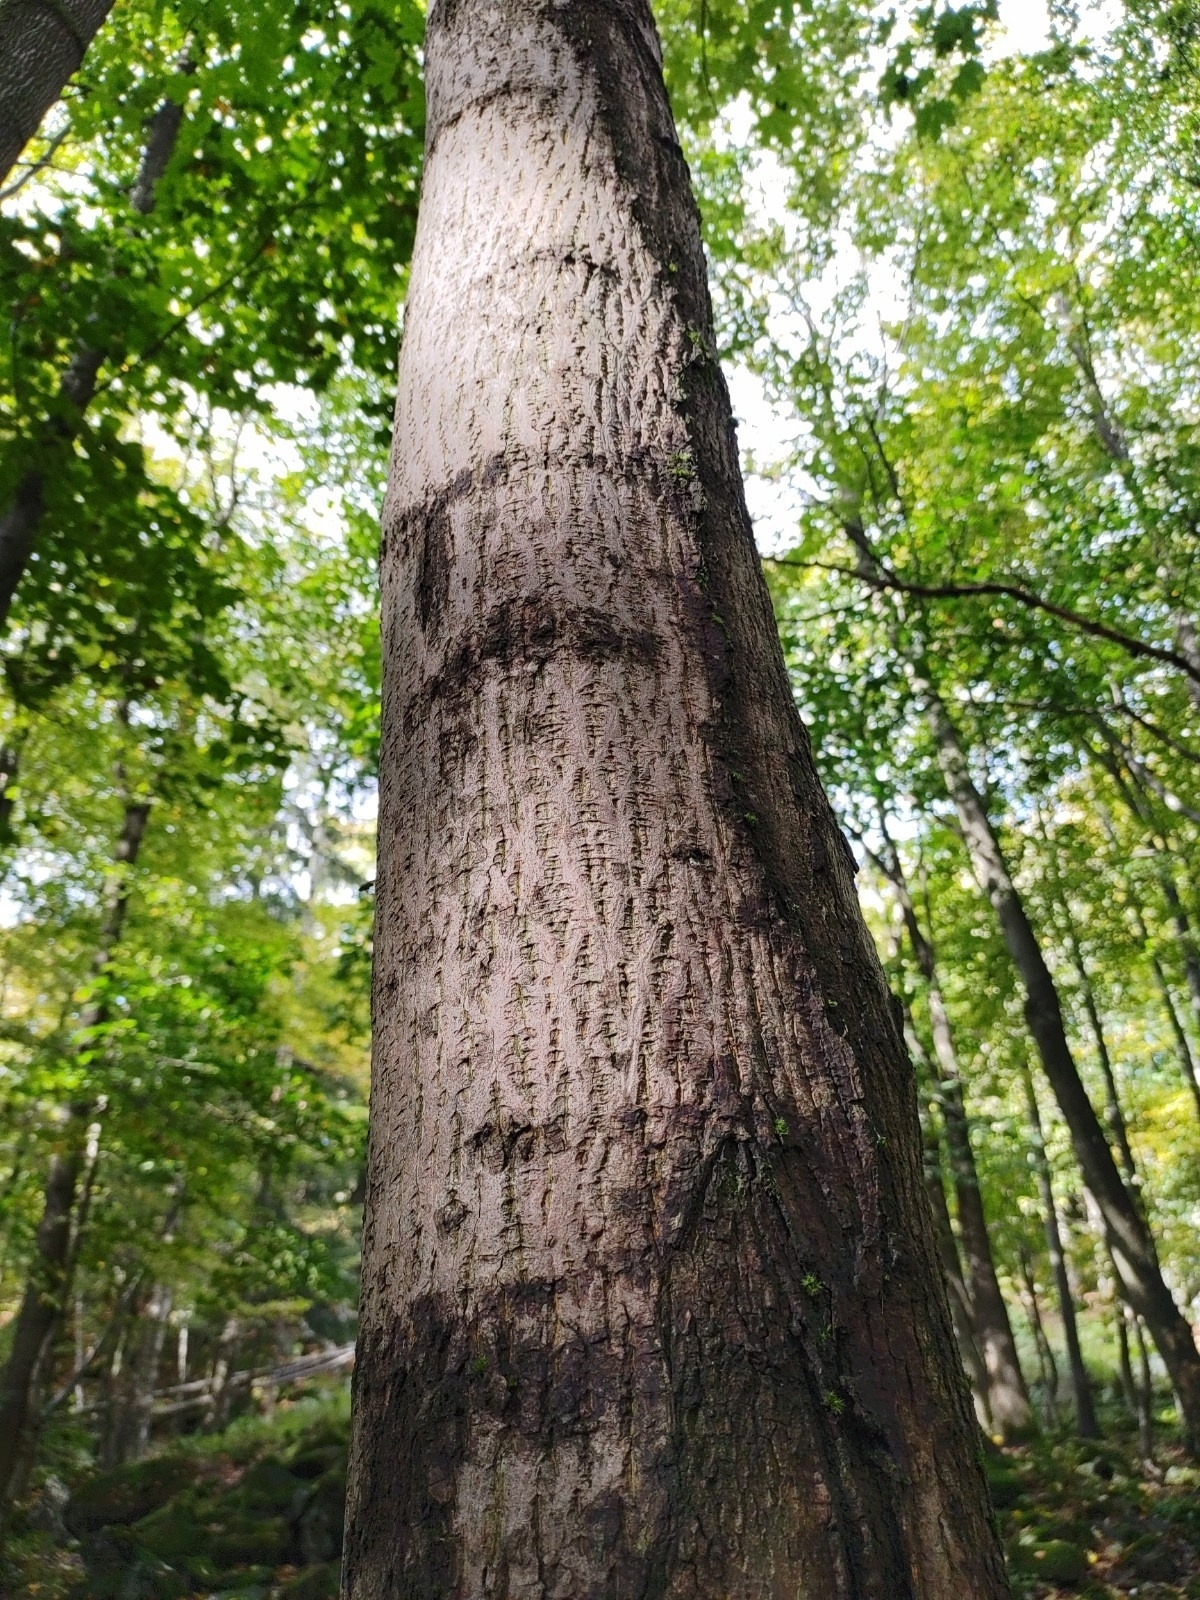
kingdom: Plantae
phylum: Tracheophyta
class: Magnoliopsida
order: Sapindales
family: Sapindaceae
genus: Acer
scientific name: Acer platanoides
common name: Norway maple
